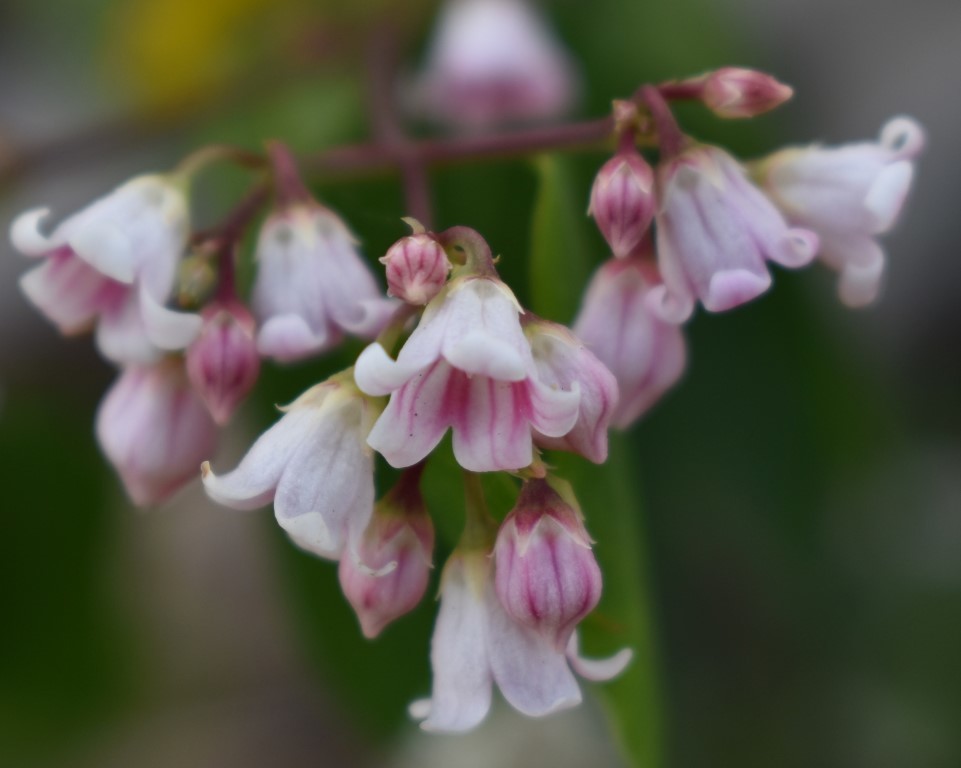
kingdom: Plantae
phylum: Tracheophyta
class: Magnoliopsida
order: Gentianales
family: Apocynaceae
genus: Apocynum
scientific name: Apocynum androsaemifolium
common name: Spreading dogbane
